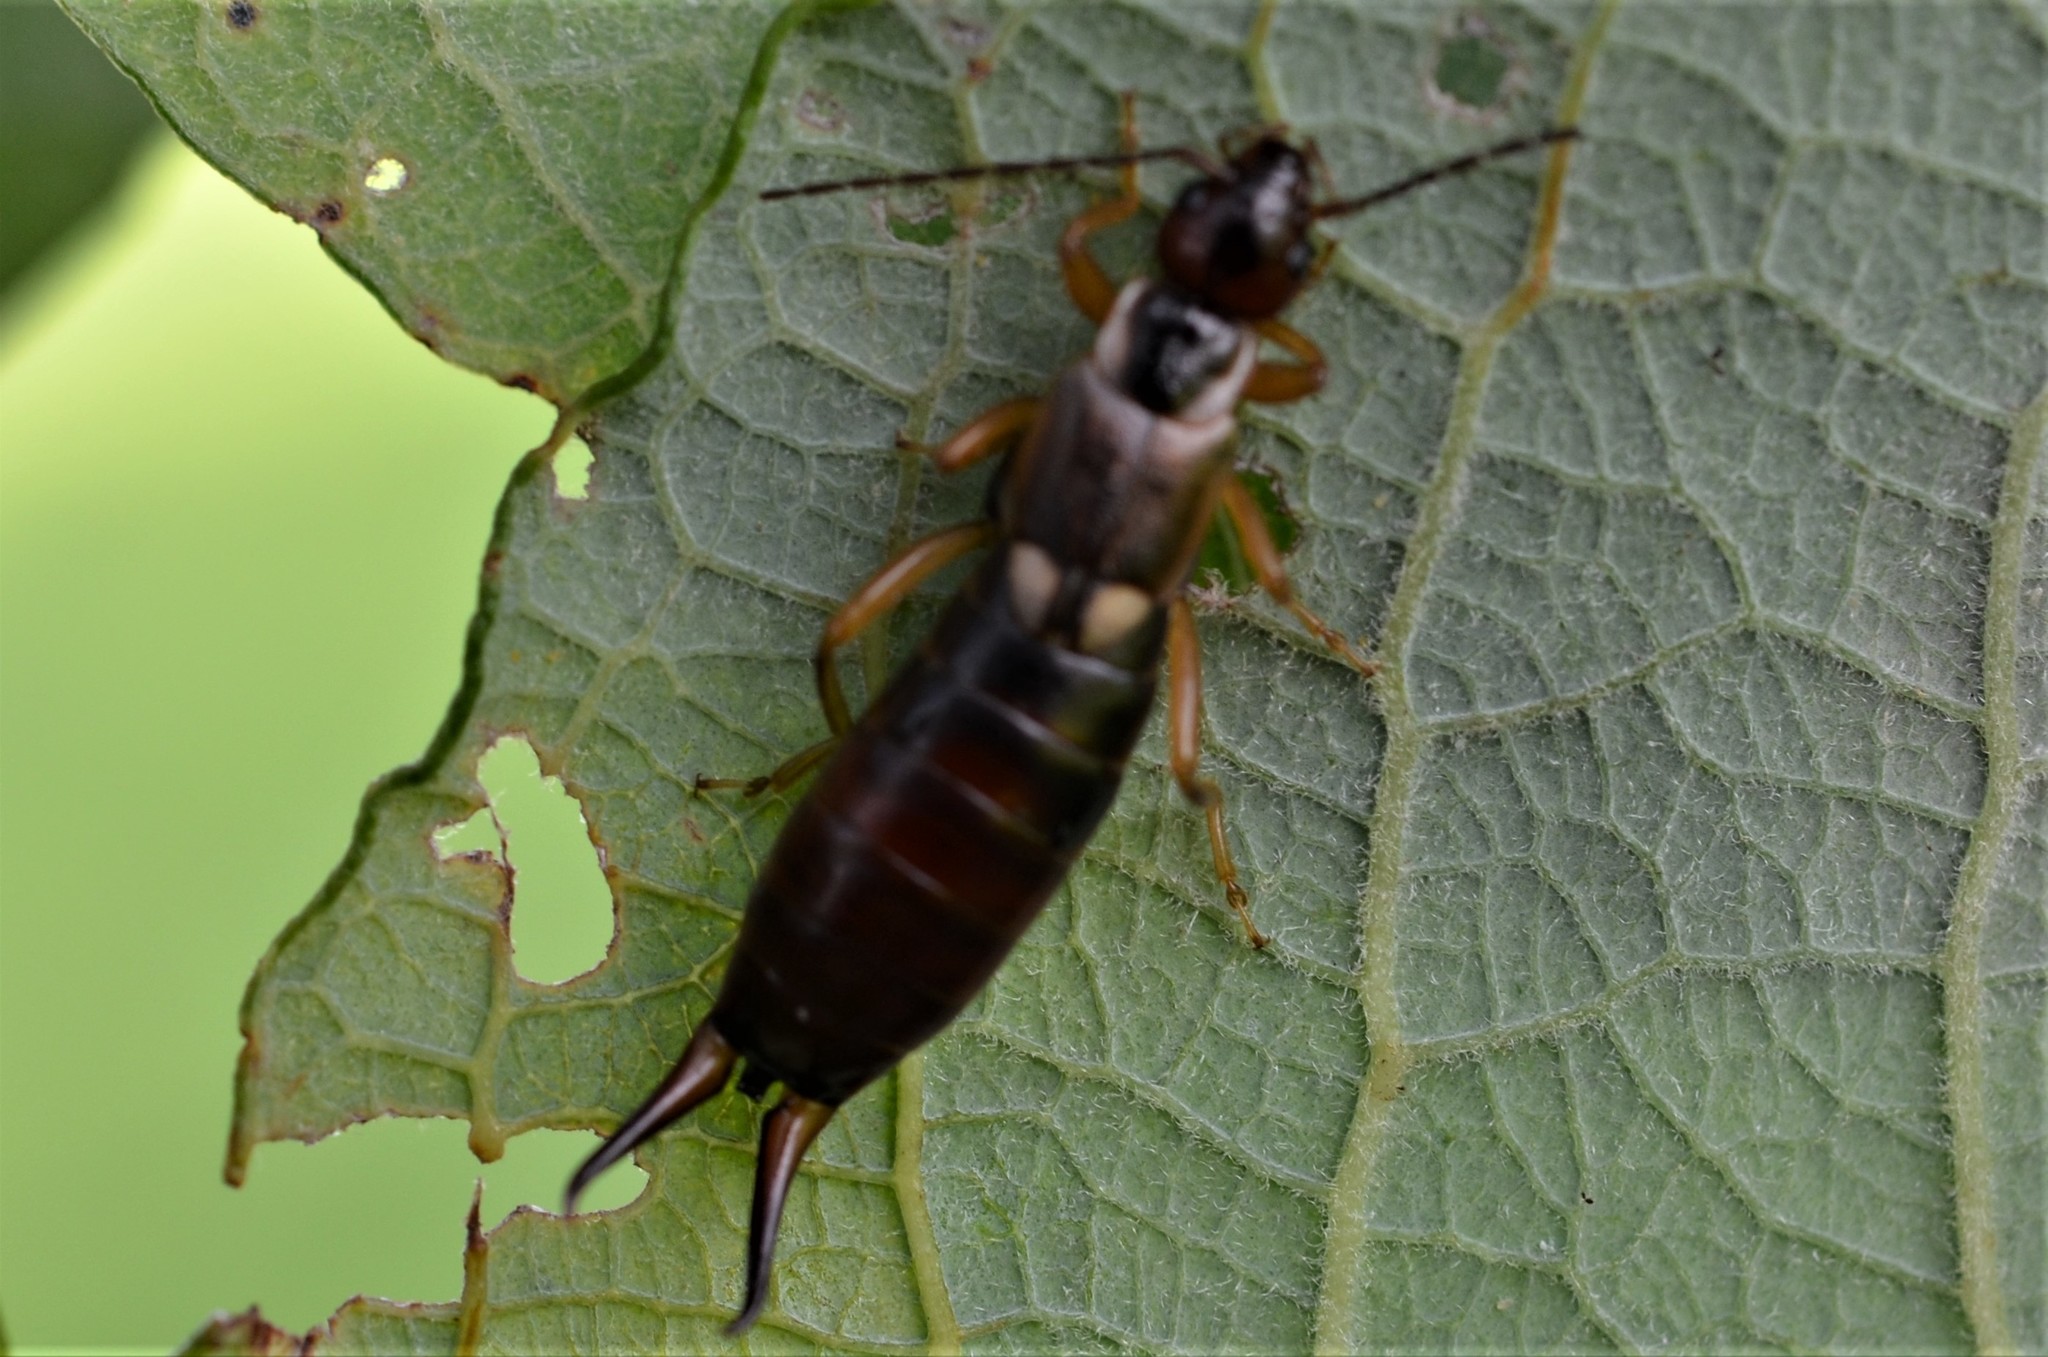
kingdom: Animalia
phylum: Arthropoda
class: Insecta
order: Dermaptera
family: Forficulidae
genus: Forficula
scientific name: Forficula
